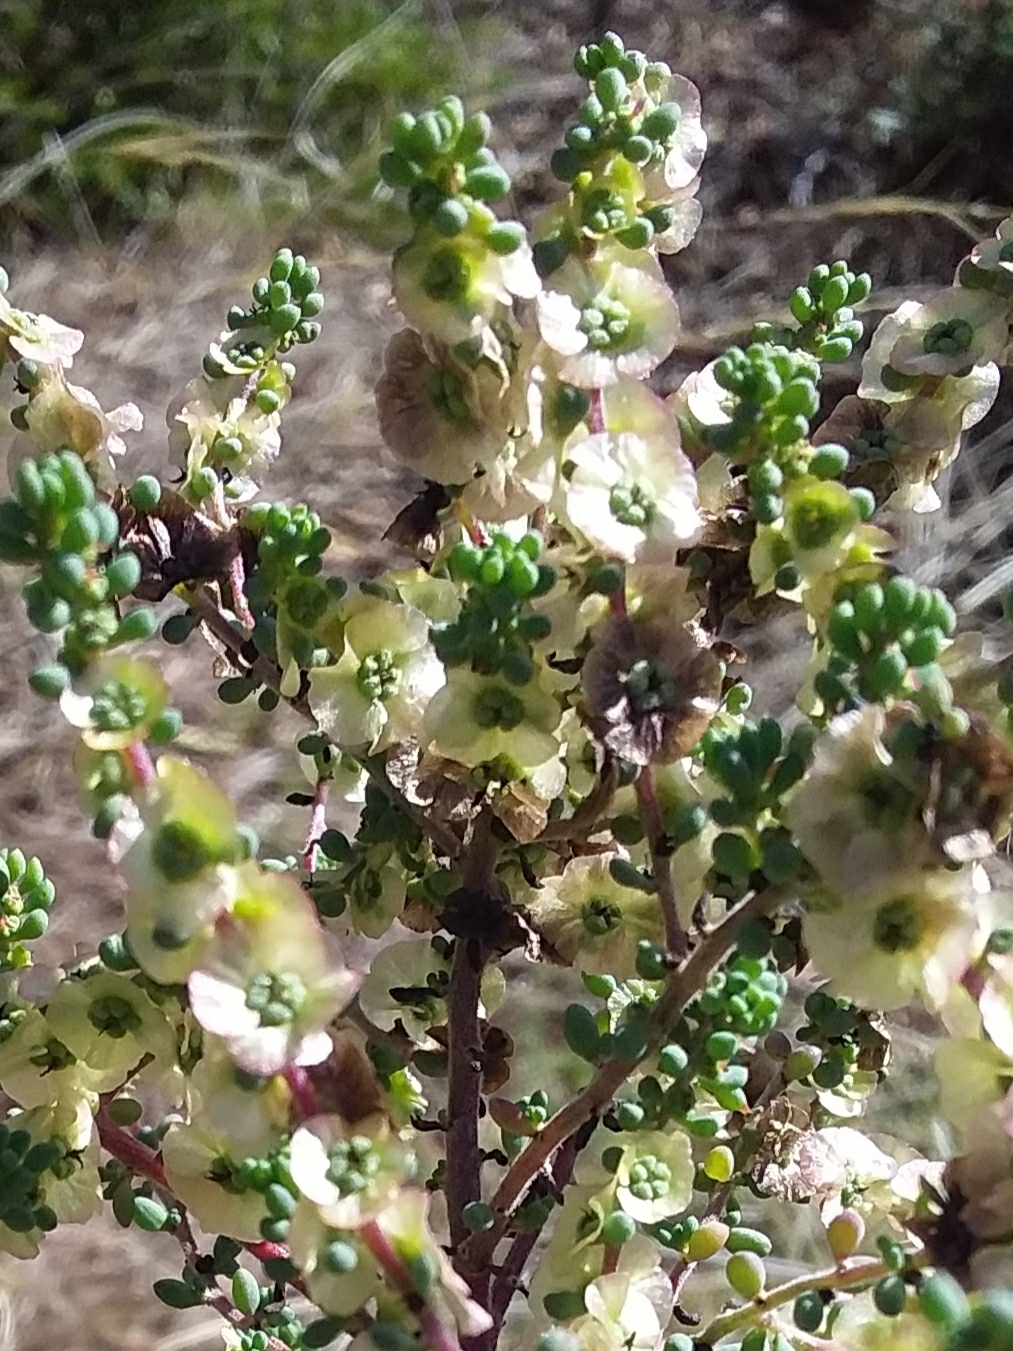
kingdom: Plantae
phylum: Tracheophyta
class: Magnoliopsida
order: Caryophyllales
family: Amaranthaceae
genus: Maireana
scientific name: Maireana brevifolia
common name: Eastern cottonbush
